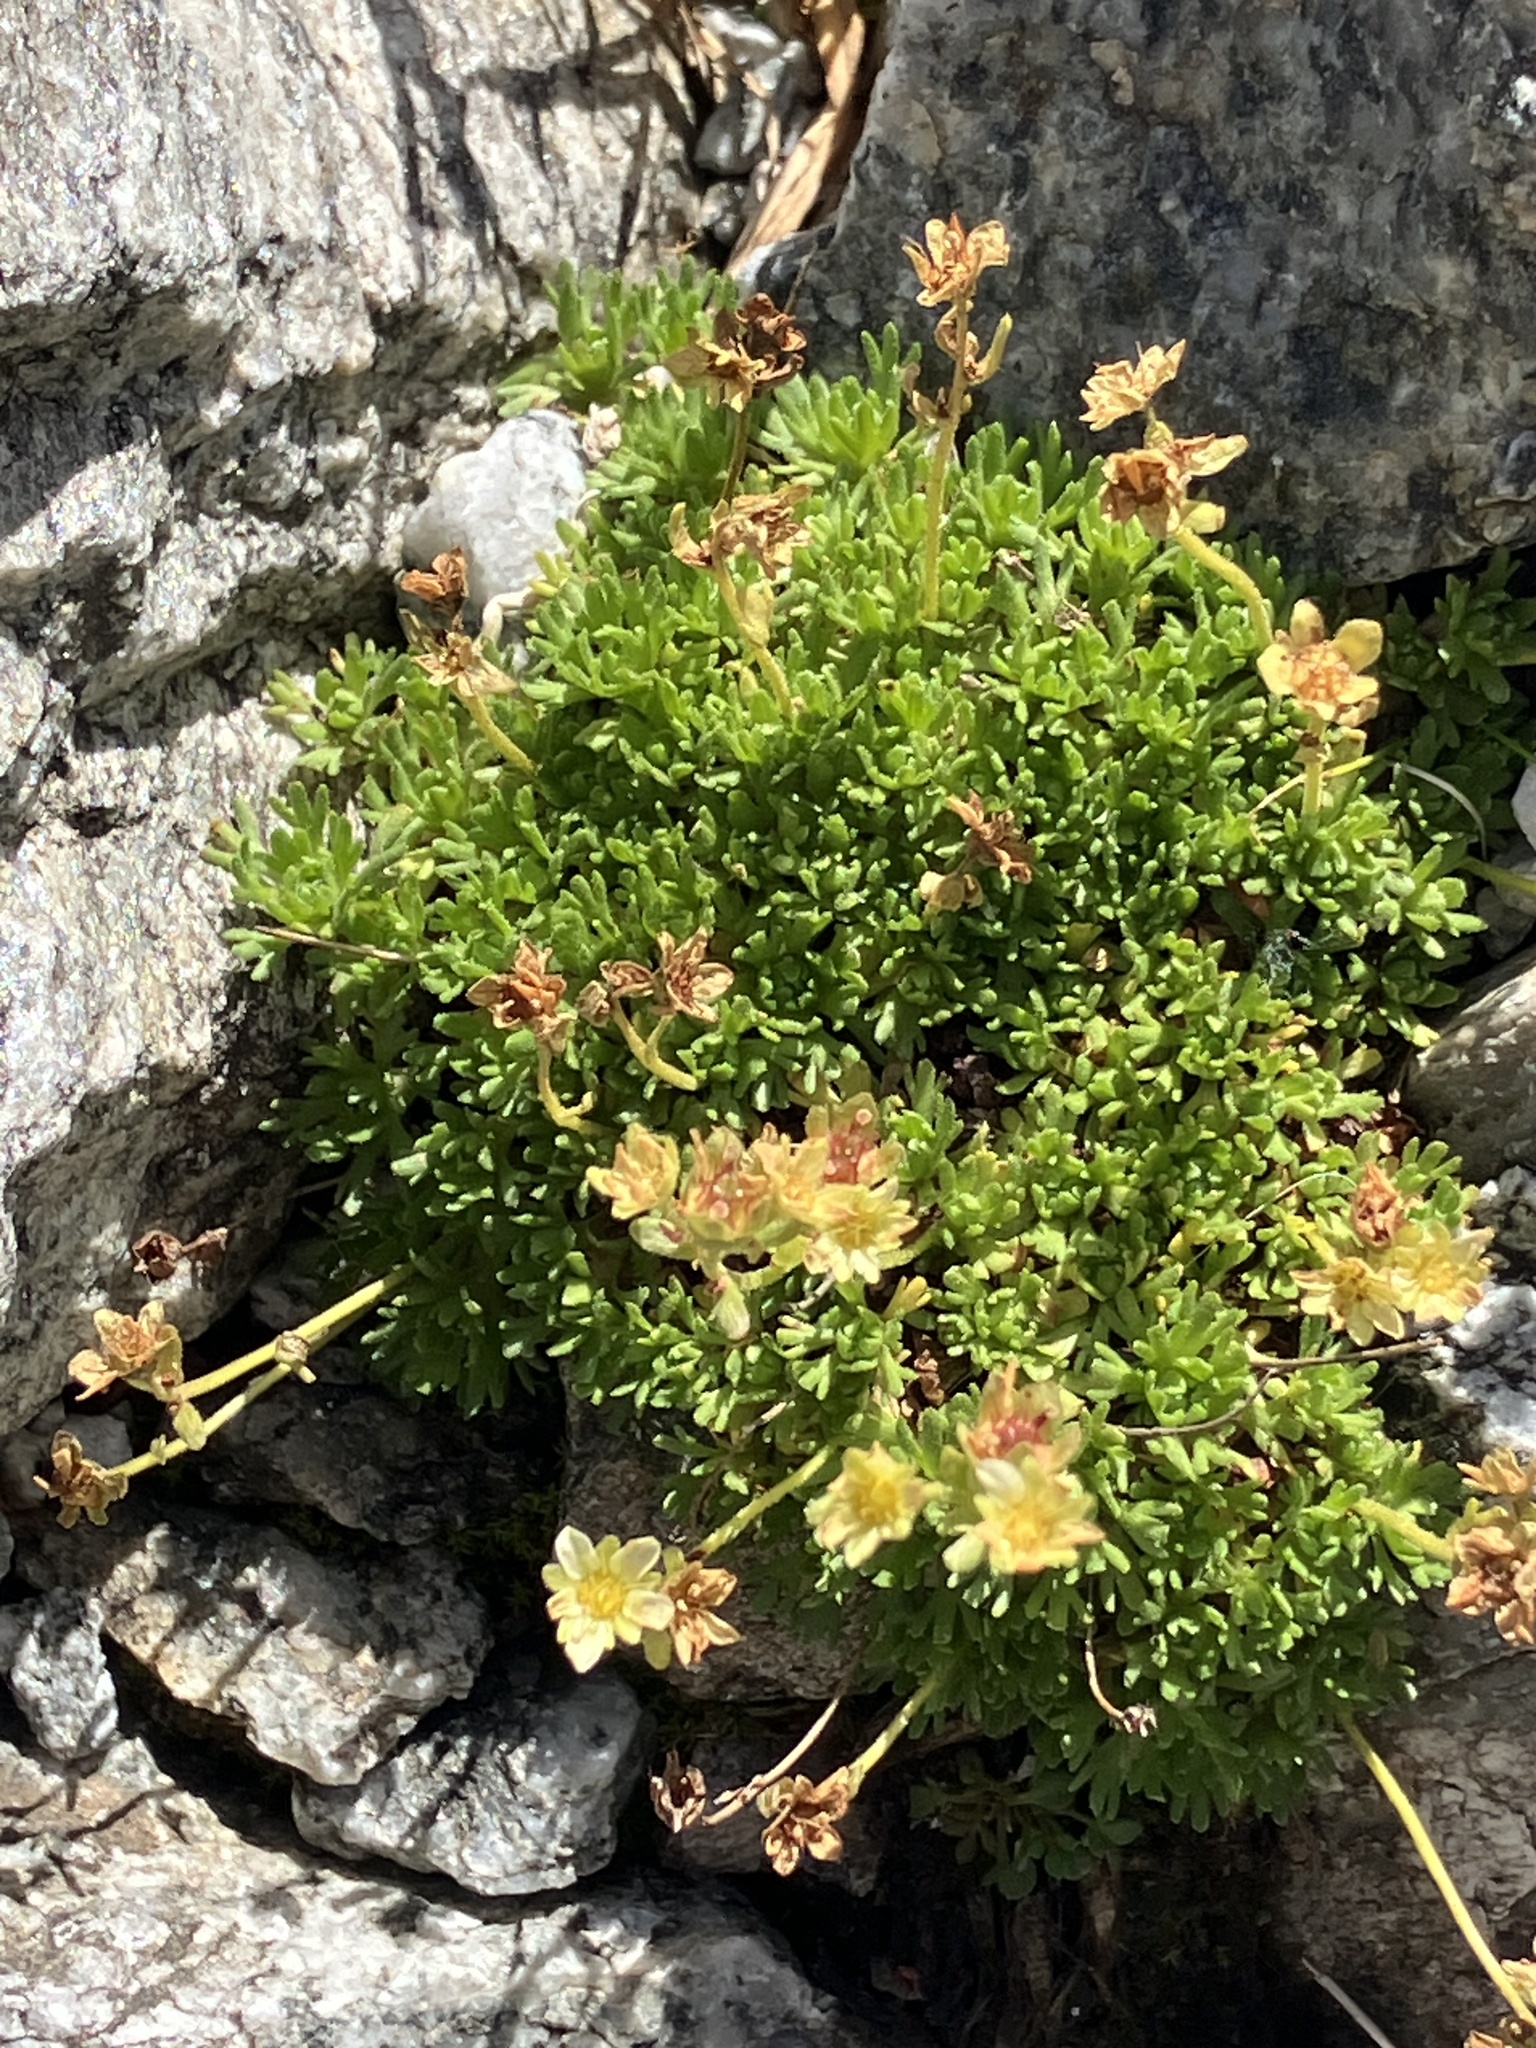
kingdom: Plantae
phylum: Tracheophyta
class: Magnoliopsida
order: Saxifragales
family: Saxifragaceae
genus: Saxifraga
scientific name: Saxifraga moschata
